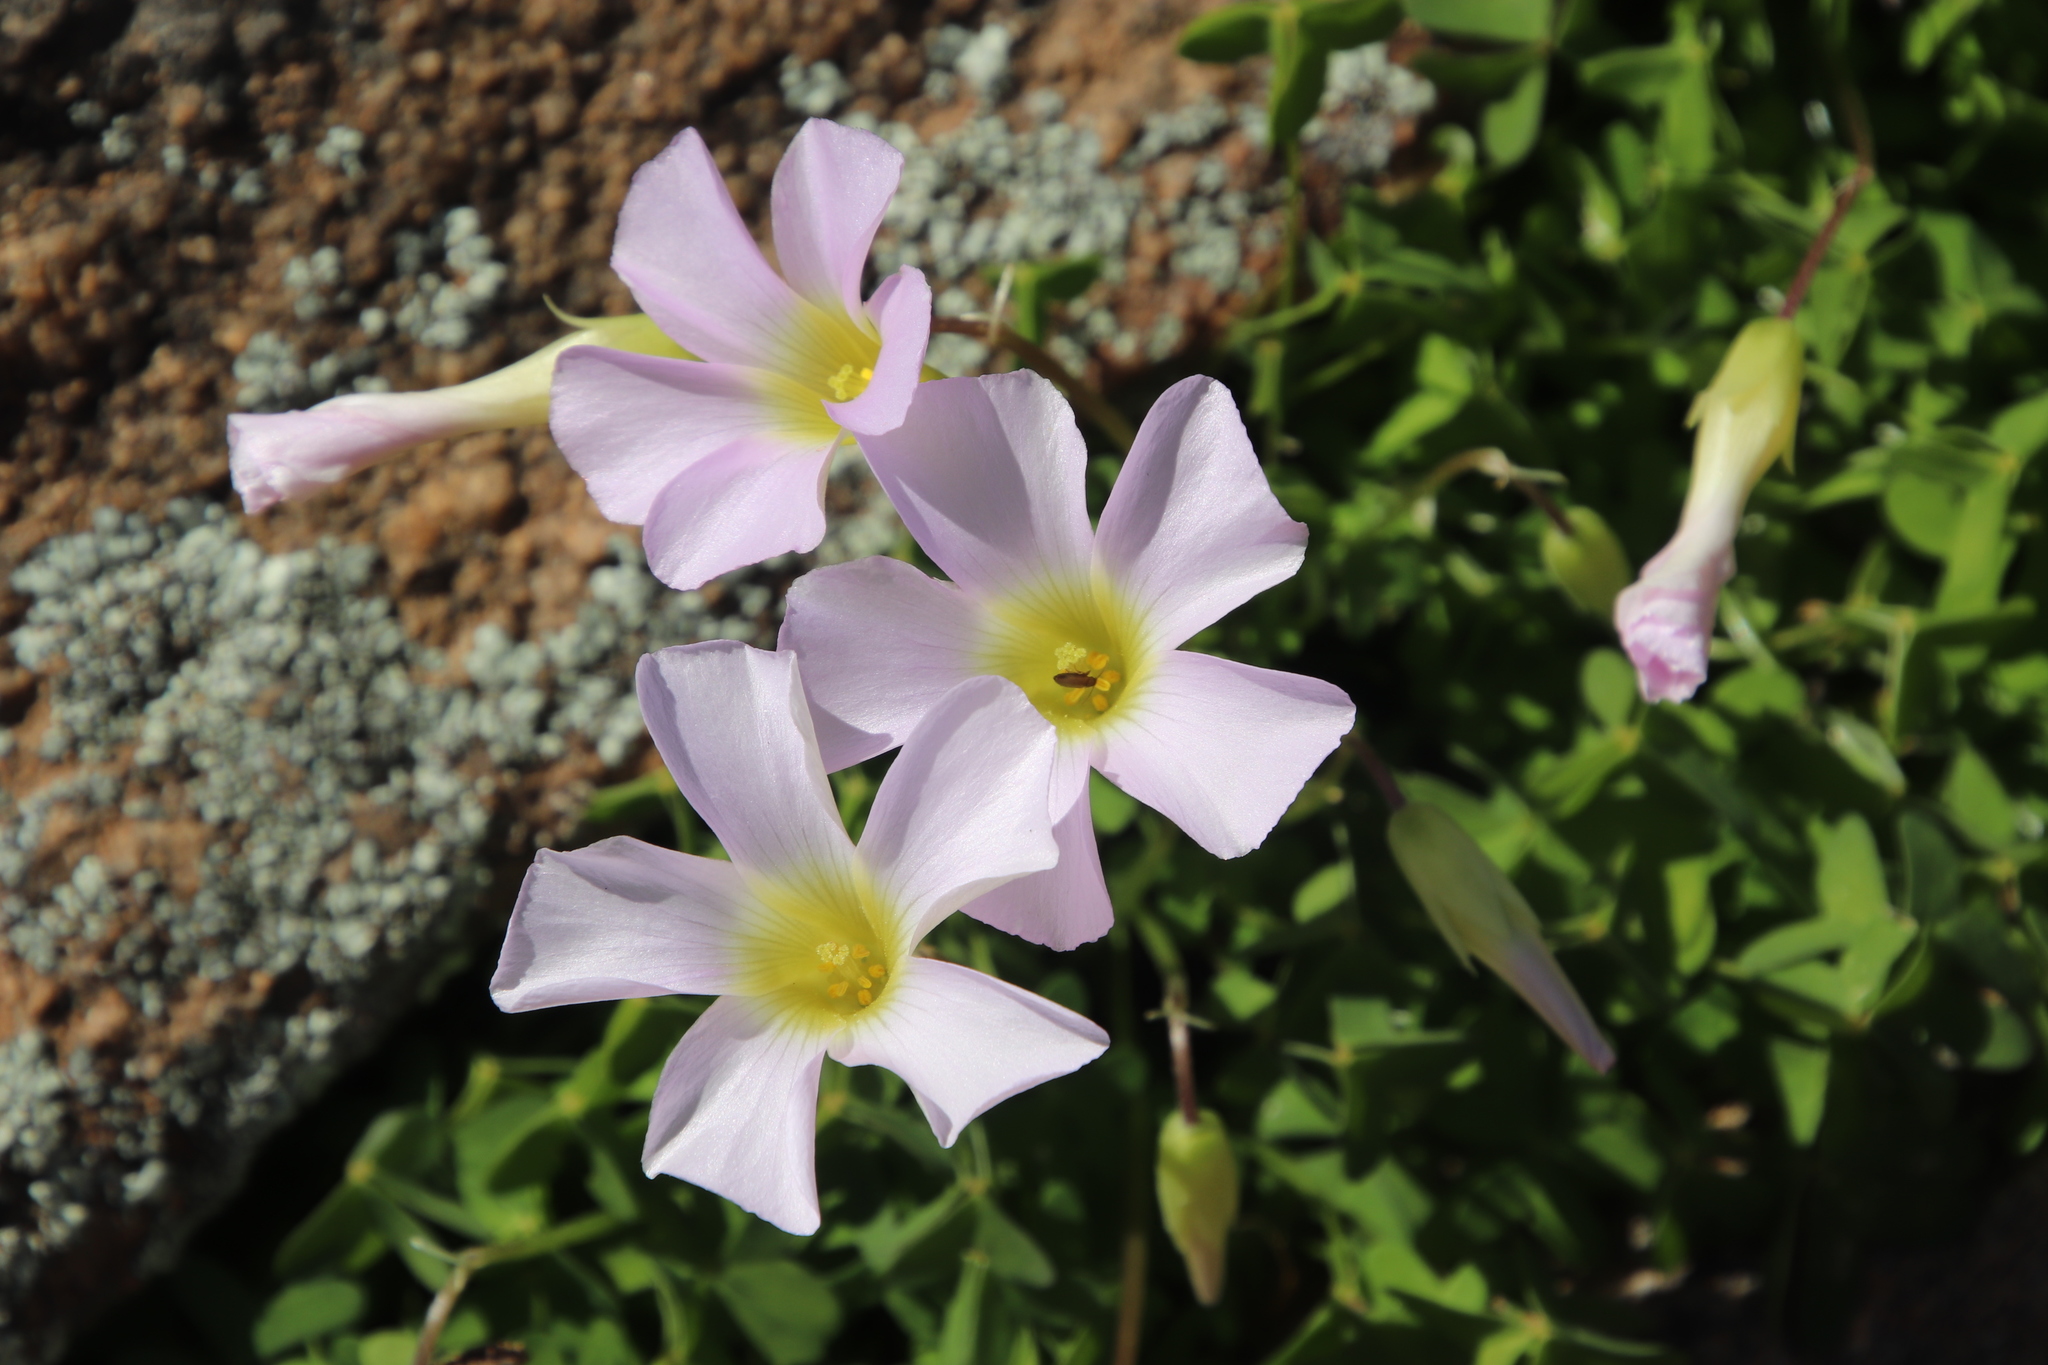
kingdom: Plantae
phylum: Tracheophyta
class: Magnoliopsida
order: Oxalidales
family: Oxalidaceae
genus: Oxalis
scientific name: Oxalis comosa
